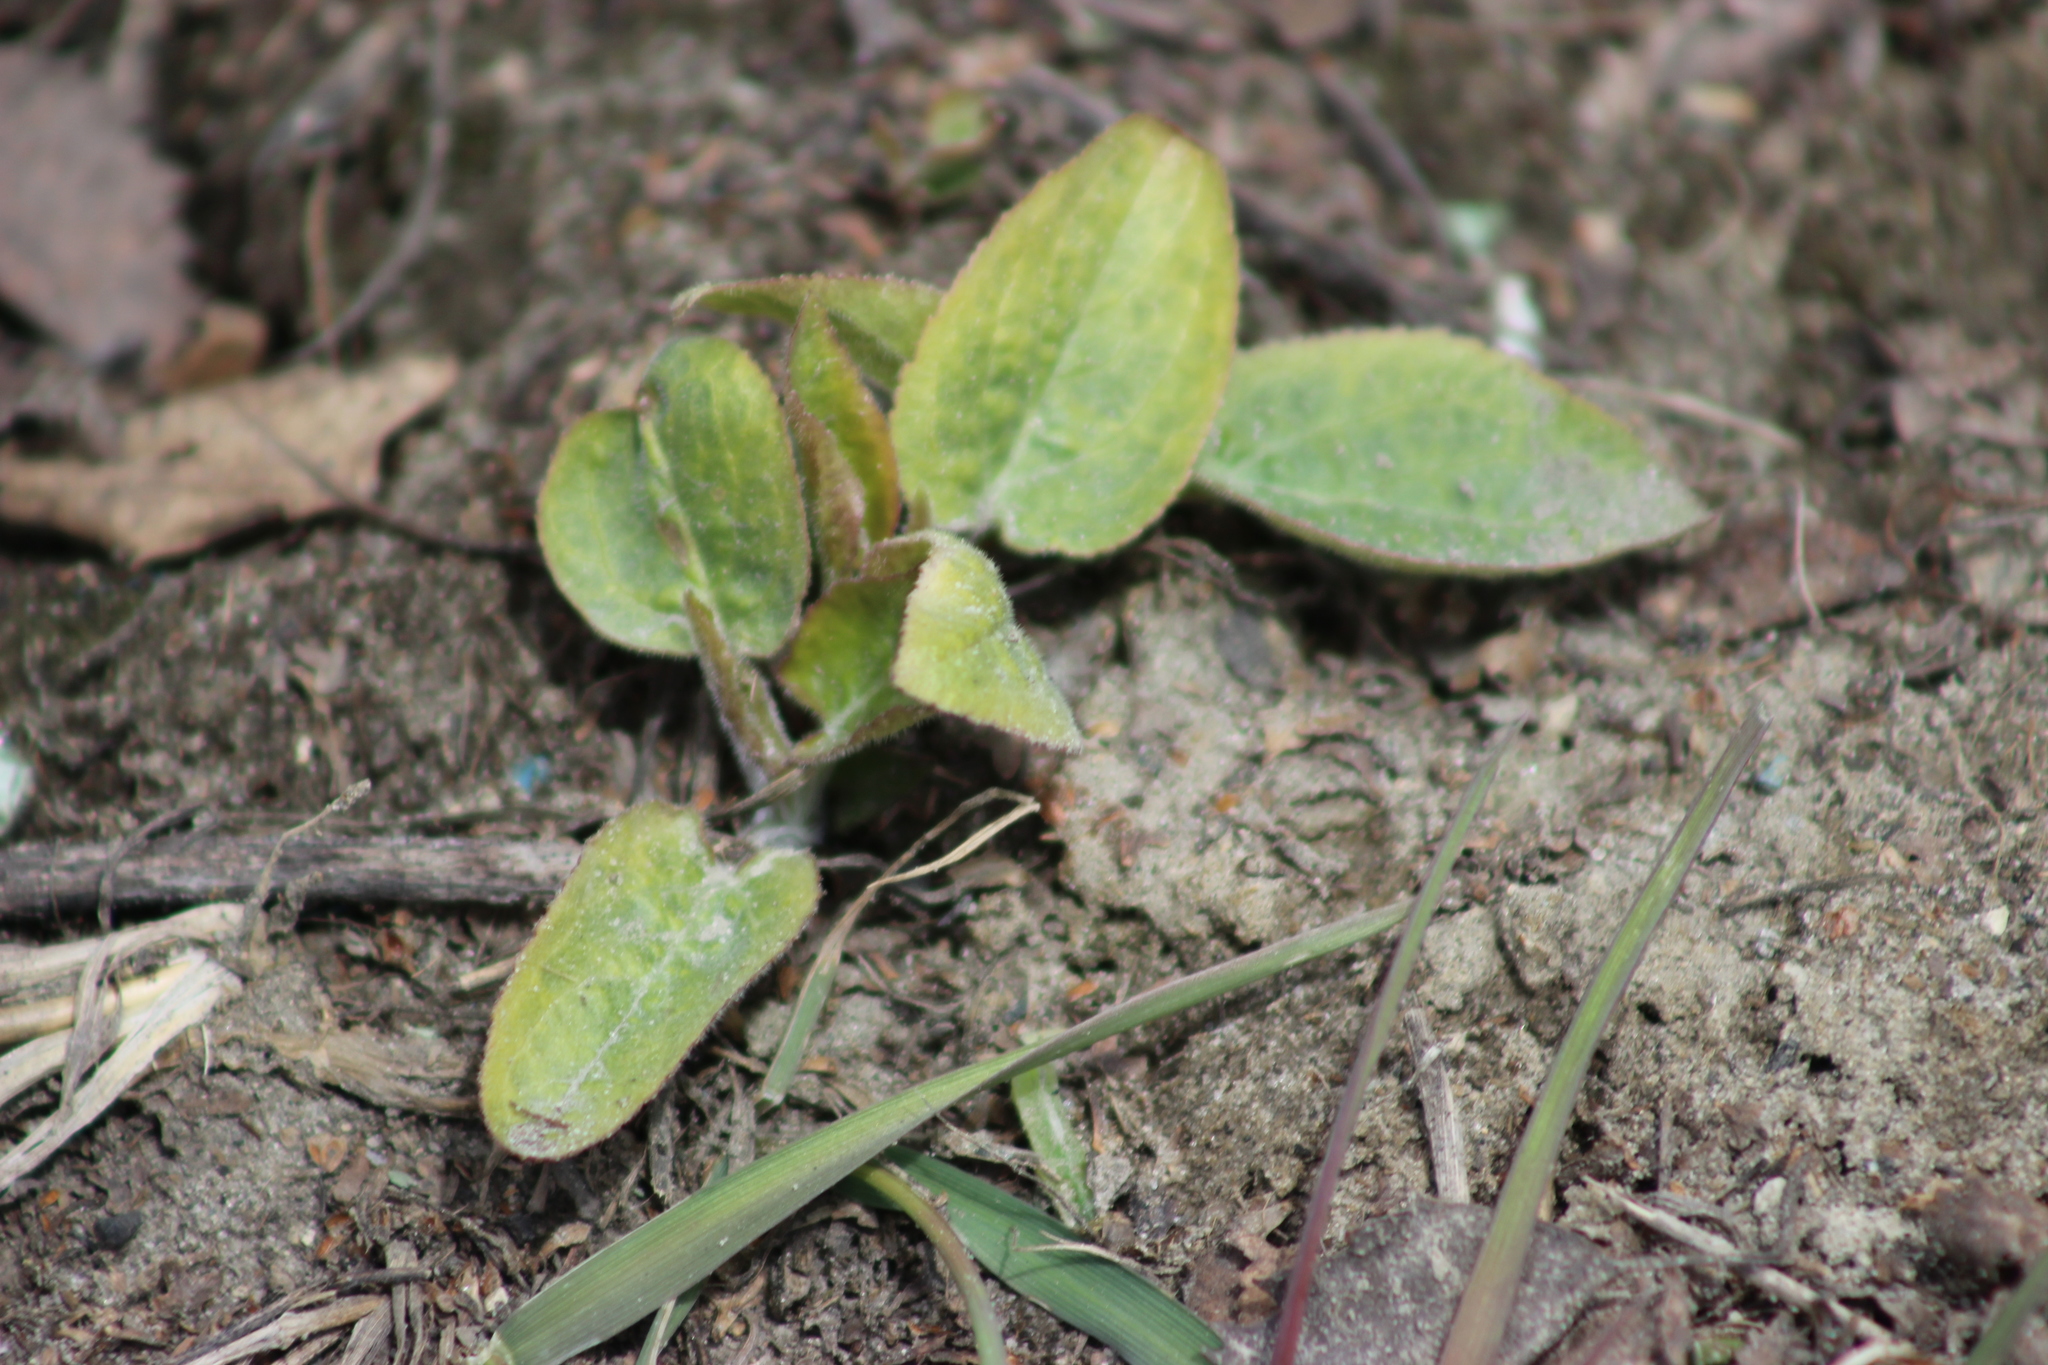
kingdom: Plantae
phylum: Tracheophyta
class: Magnoliopsida
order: Asterales
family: Campanulaceae
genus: Campanula
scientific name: Campanula rapunculoides
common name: Creeping bellflower
